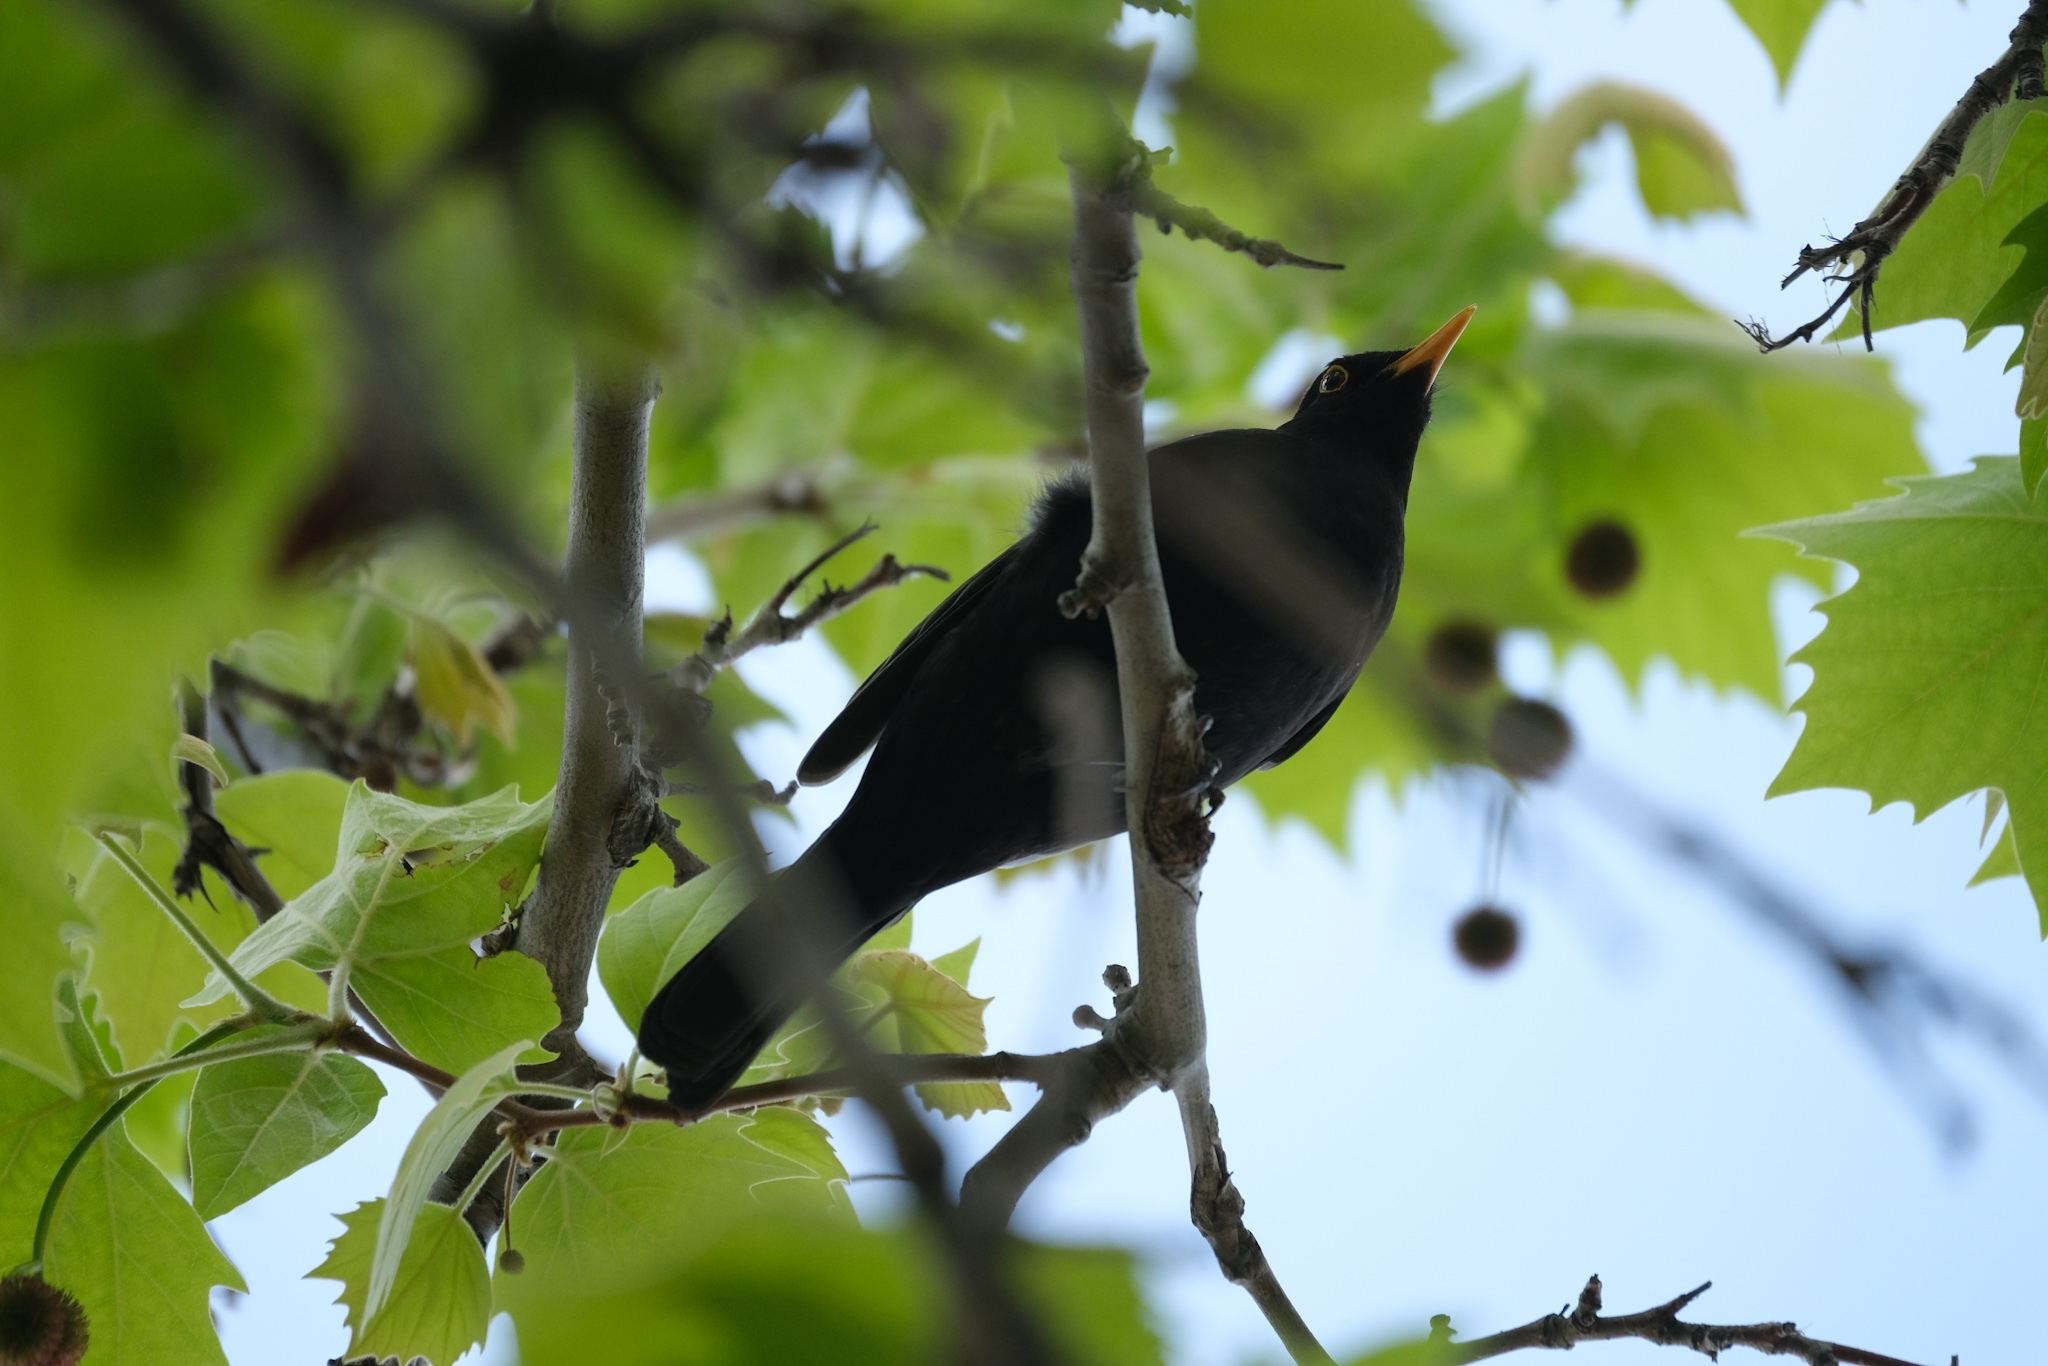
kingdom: Animalia
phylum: Chordata
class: Aves
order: Passeriformes
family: Turdidae
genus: Turdus
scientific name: Turdus merula
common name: Common blackbird
